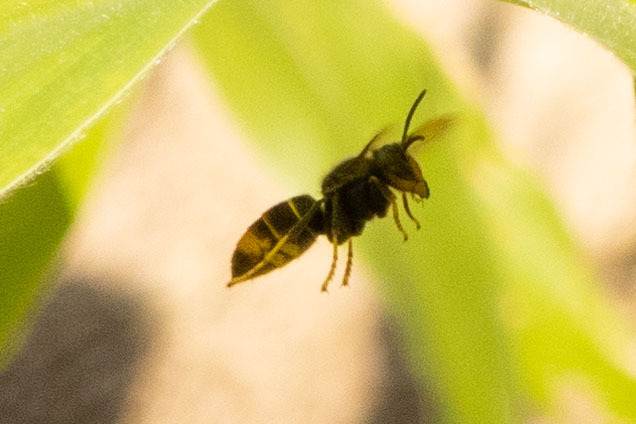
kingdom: Animalia
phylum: Arthropoda
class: Insecta
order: Hymenoptera
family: Vespidae
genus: Vespa
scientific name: Vespa velutina
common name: Asian hornet
